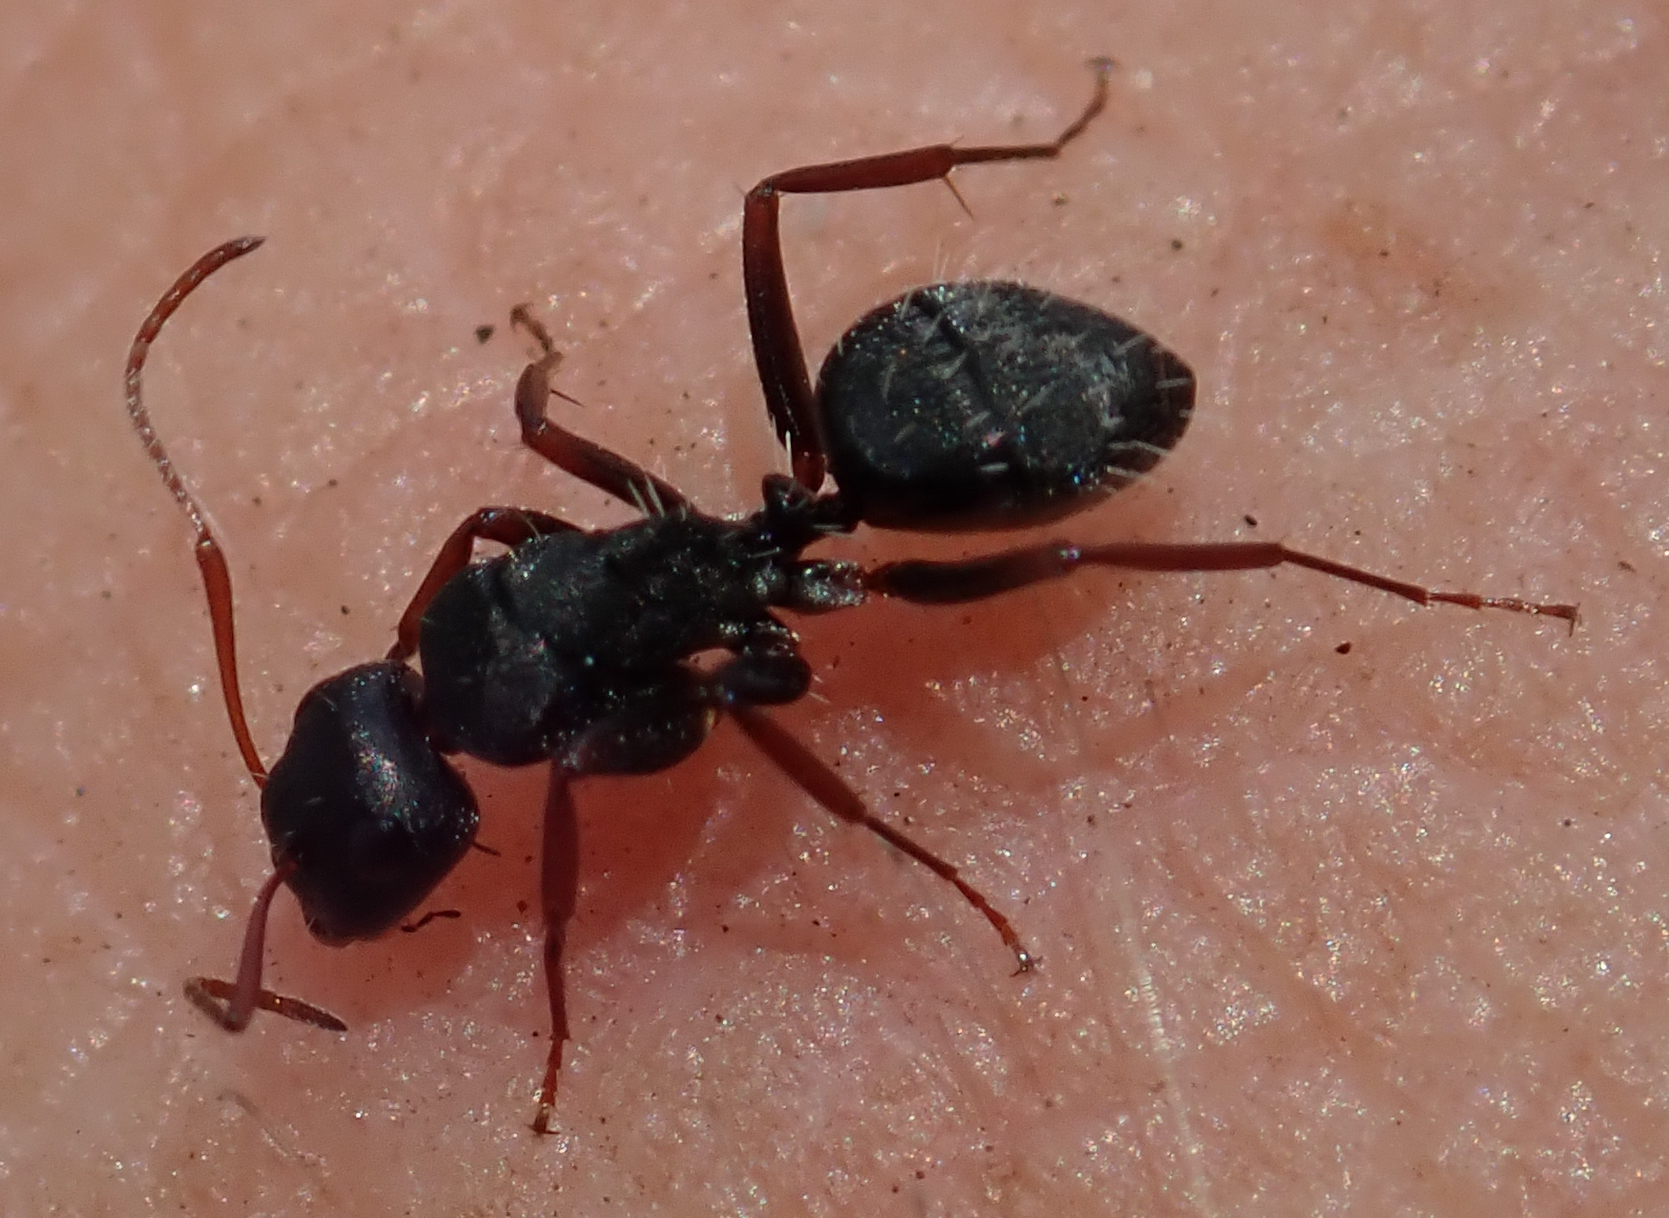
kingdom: Animalia
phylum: Arthropoda
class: Insecta
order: Hymenoptera
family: Formicidae
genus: Camponotus
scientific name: Camponotus auropubens
